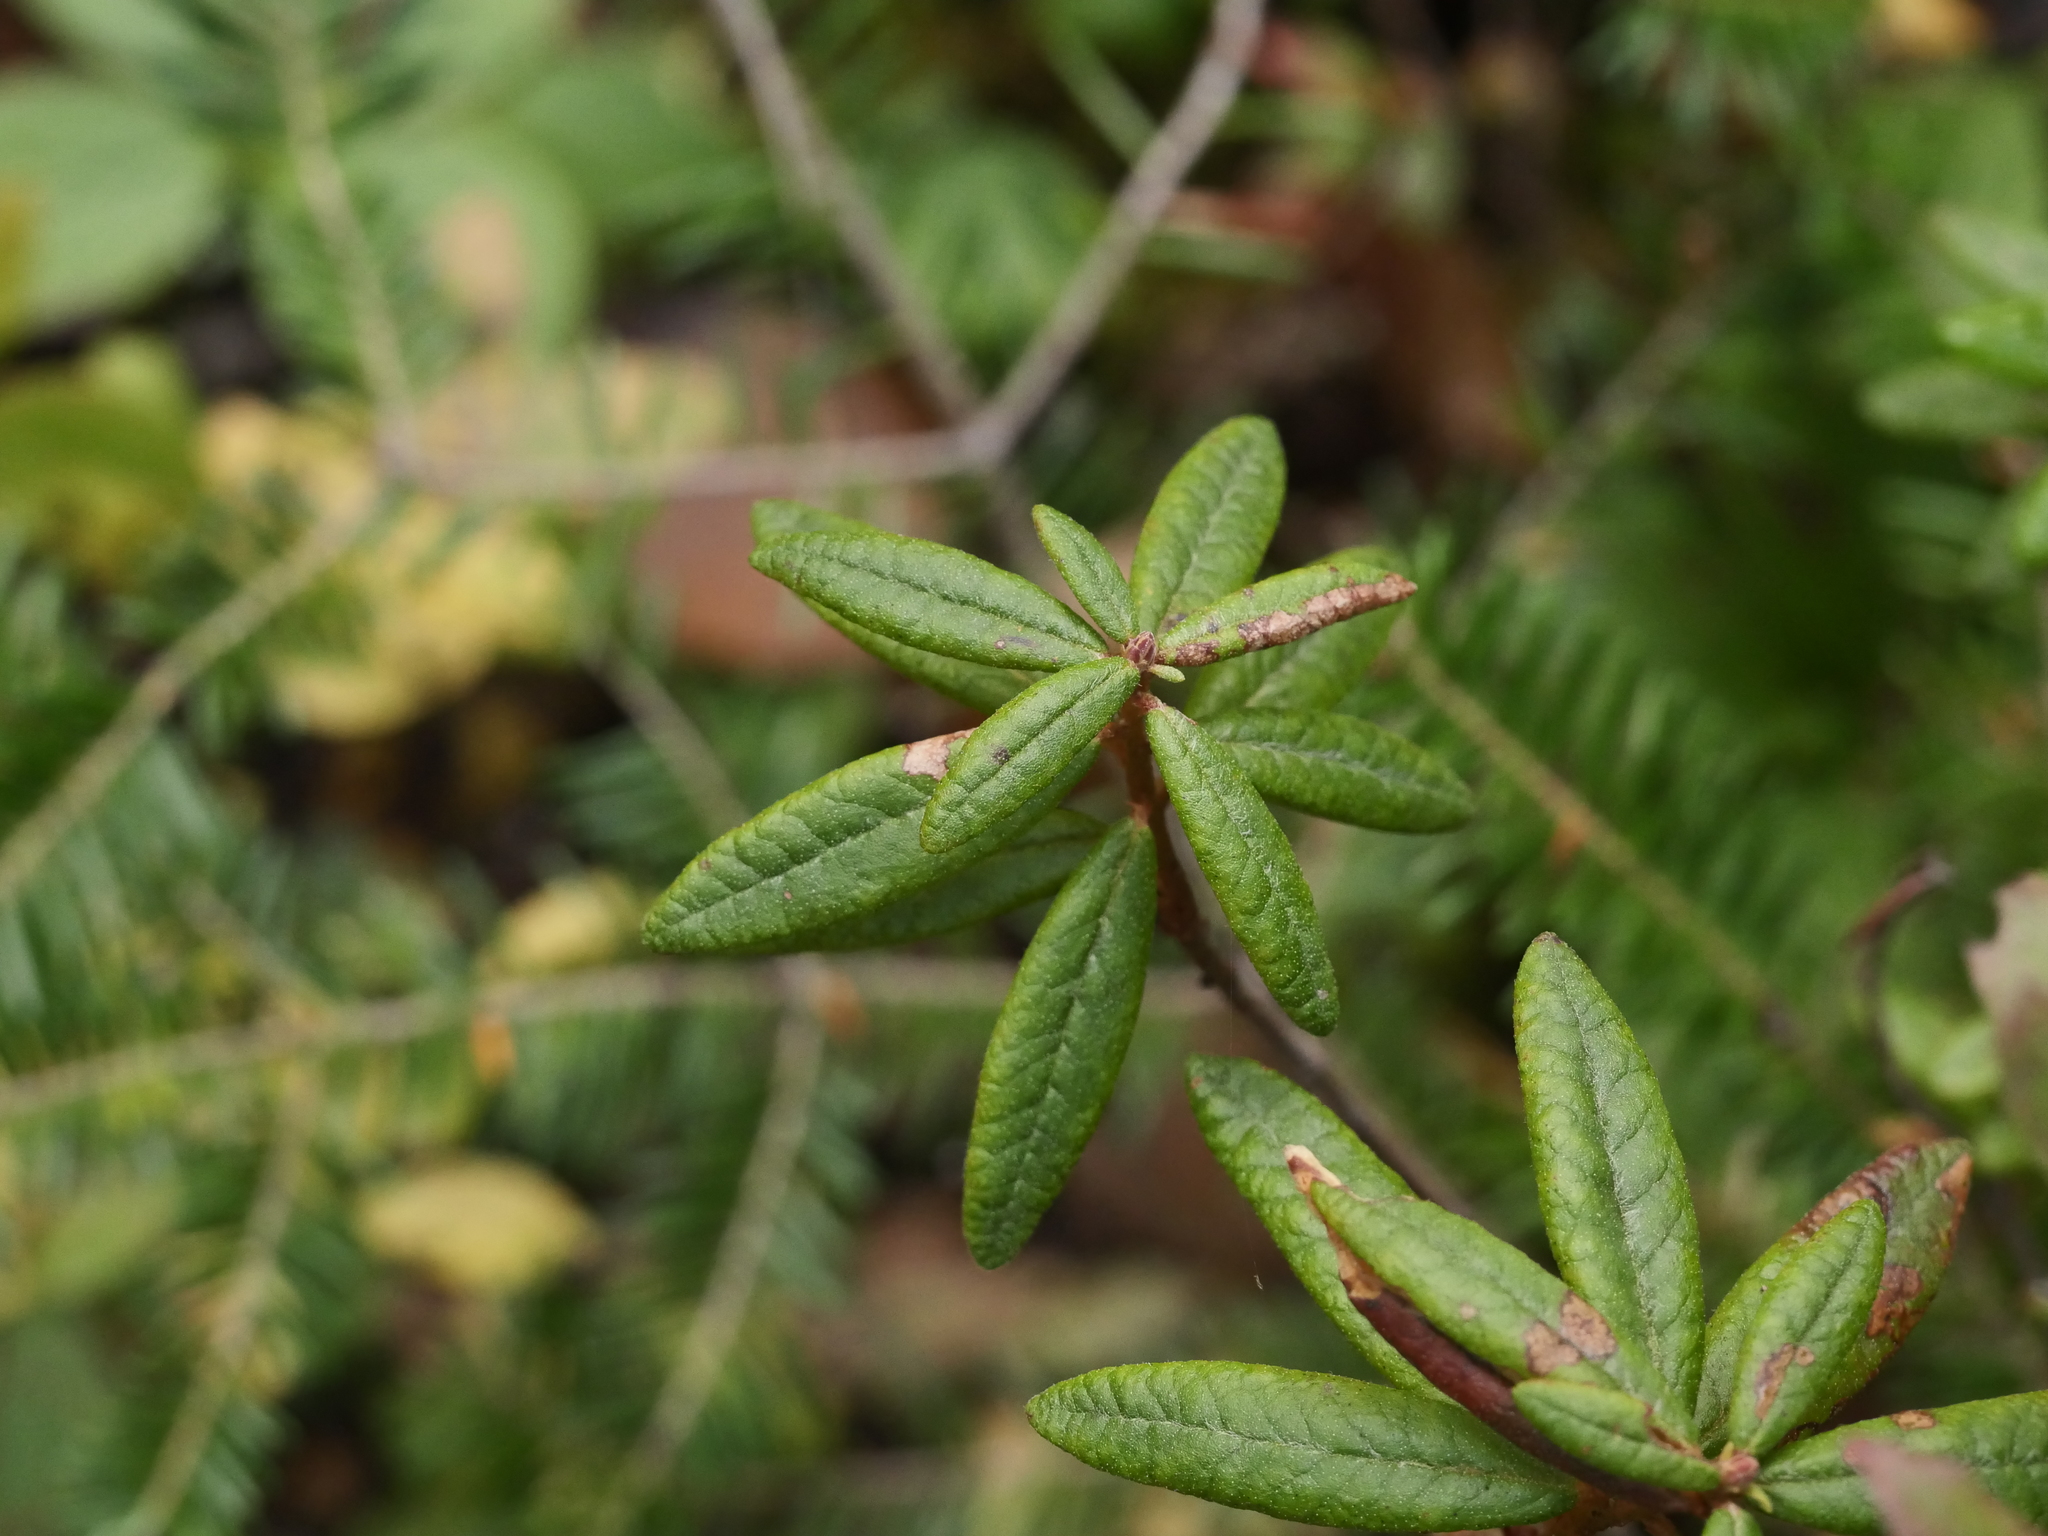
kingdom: Plantae
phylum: Tracheophyta
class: Magnoliopsida
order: Ericales
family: Ericaceae
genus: Rhododendron
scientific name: Rhododendron groenlandicum
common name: Bog labrador tea
